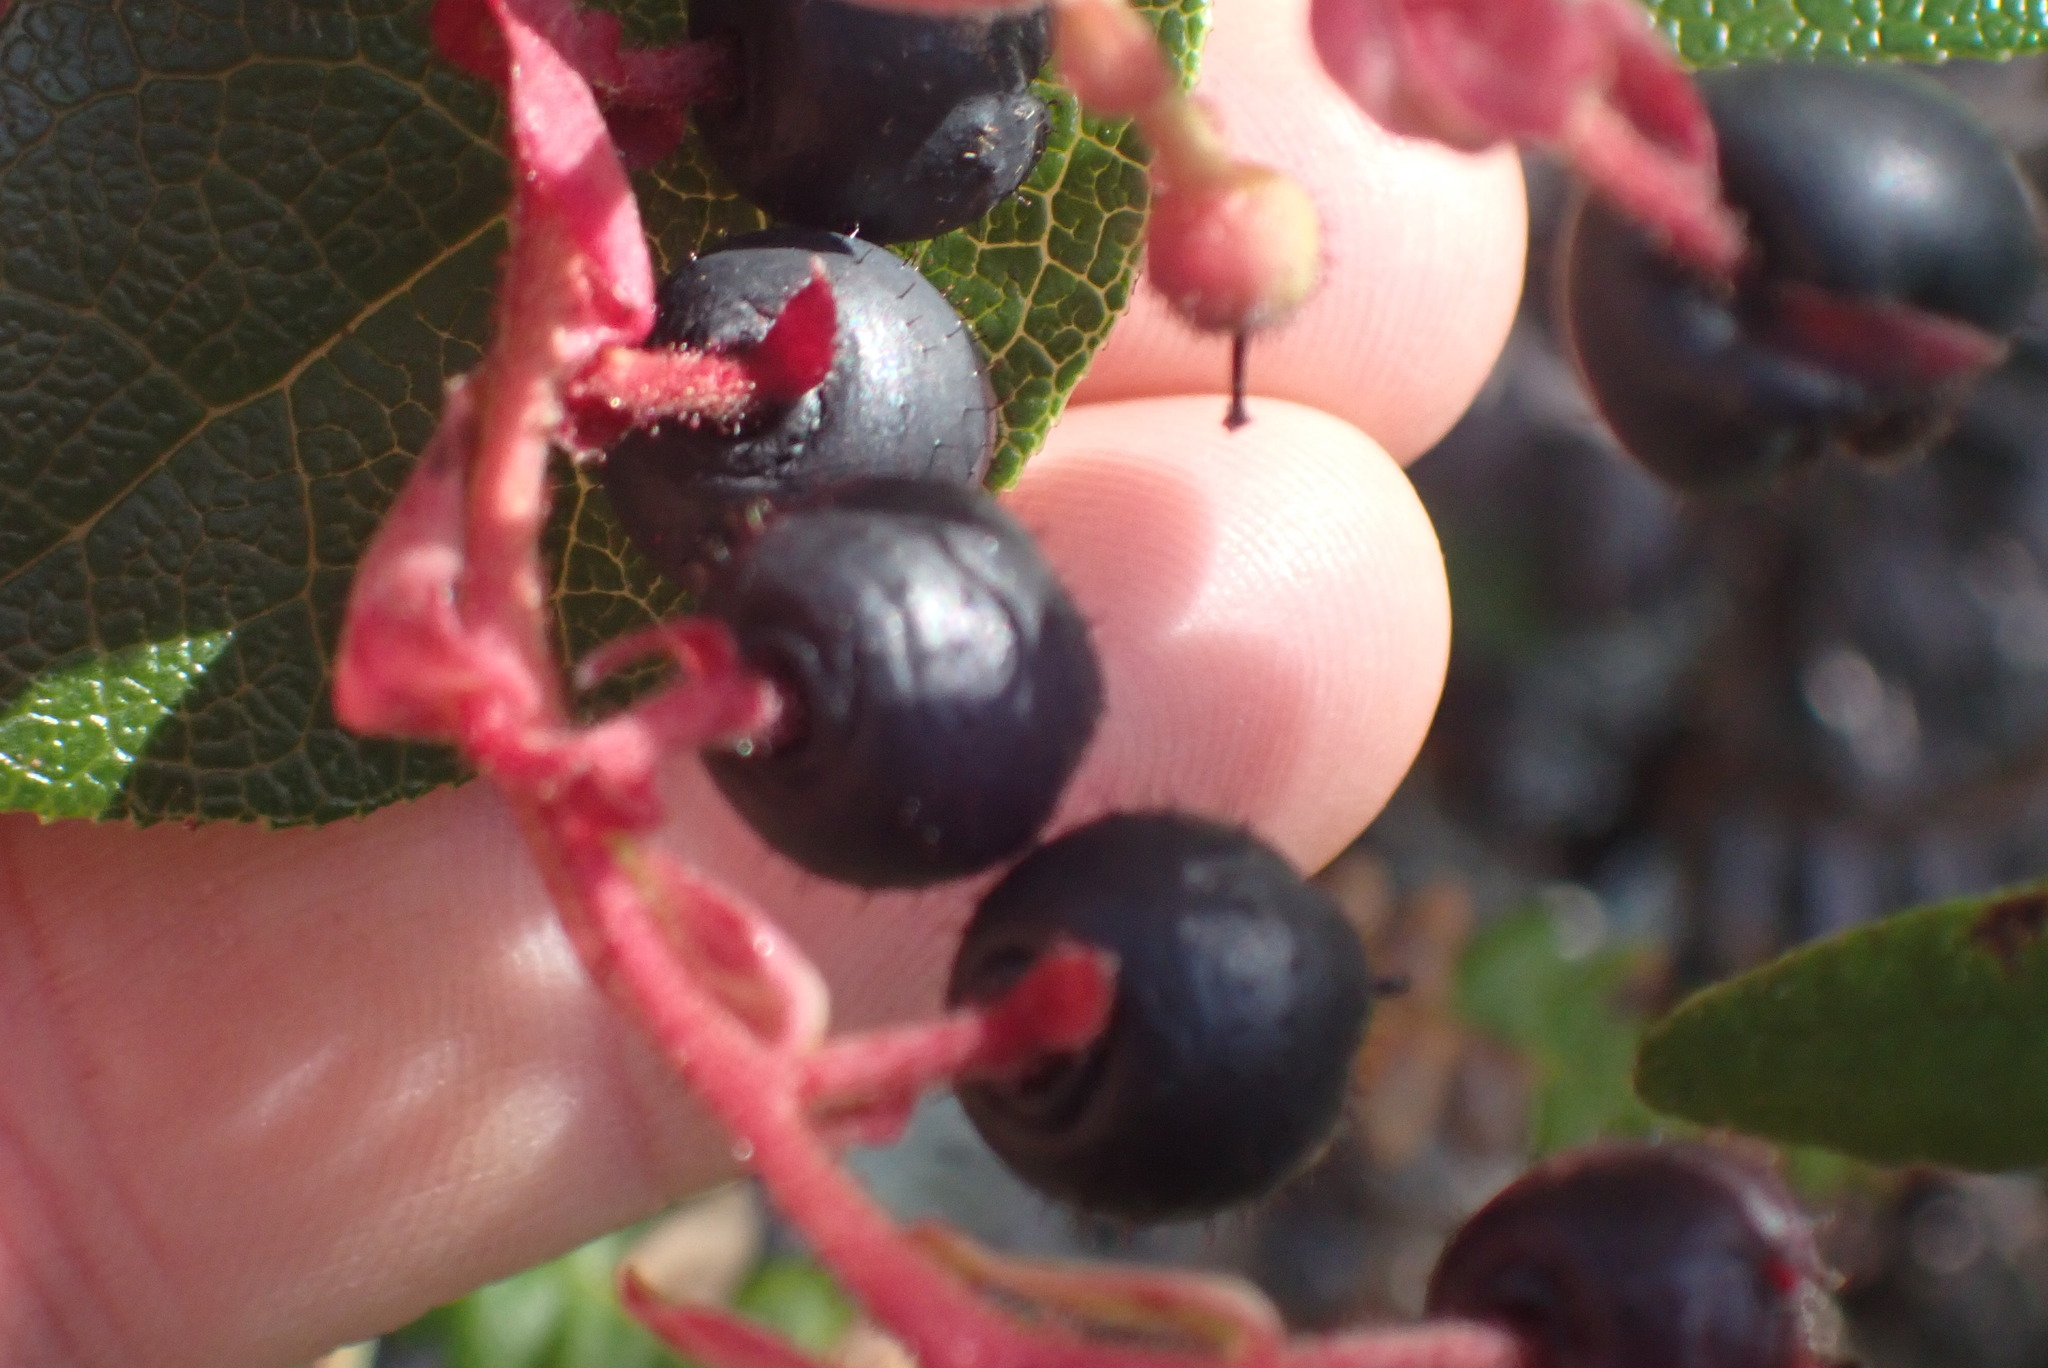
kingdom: Plantae
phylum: Tracheophyta
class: Magnoliopsida
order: Ericales
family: Ericaceae
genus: Gaultheria
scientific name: Gaultheria shallon
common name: Shallon
